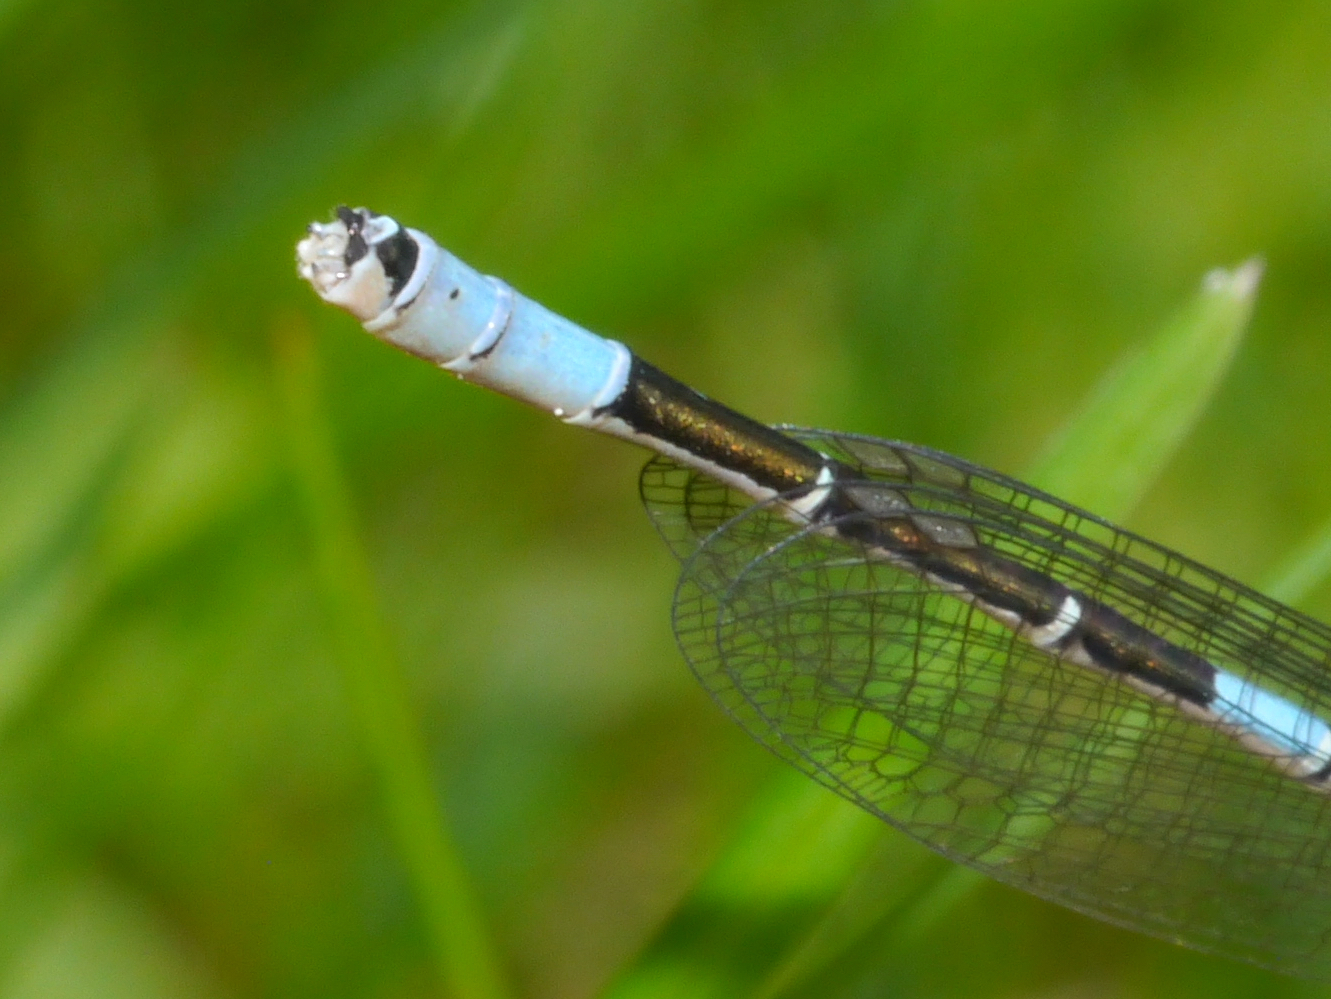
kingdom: Animalia
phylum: Arthropoda
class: Insecta
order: Odonata
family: Coenagrionidae
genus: Coenagrion
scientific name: Coenagrion resolutum
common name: Taiga bluet
